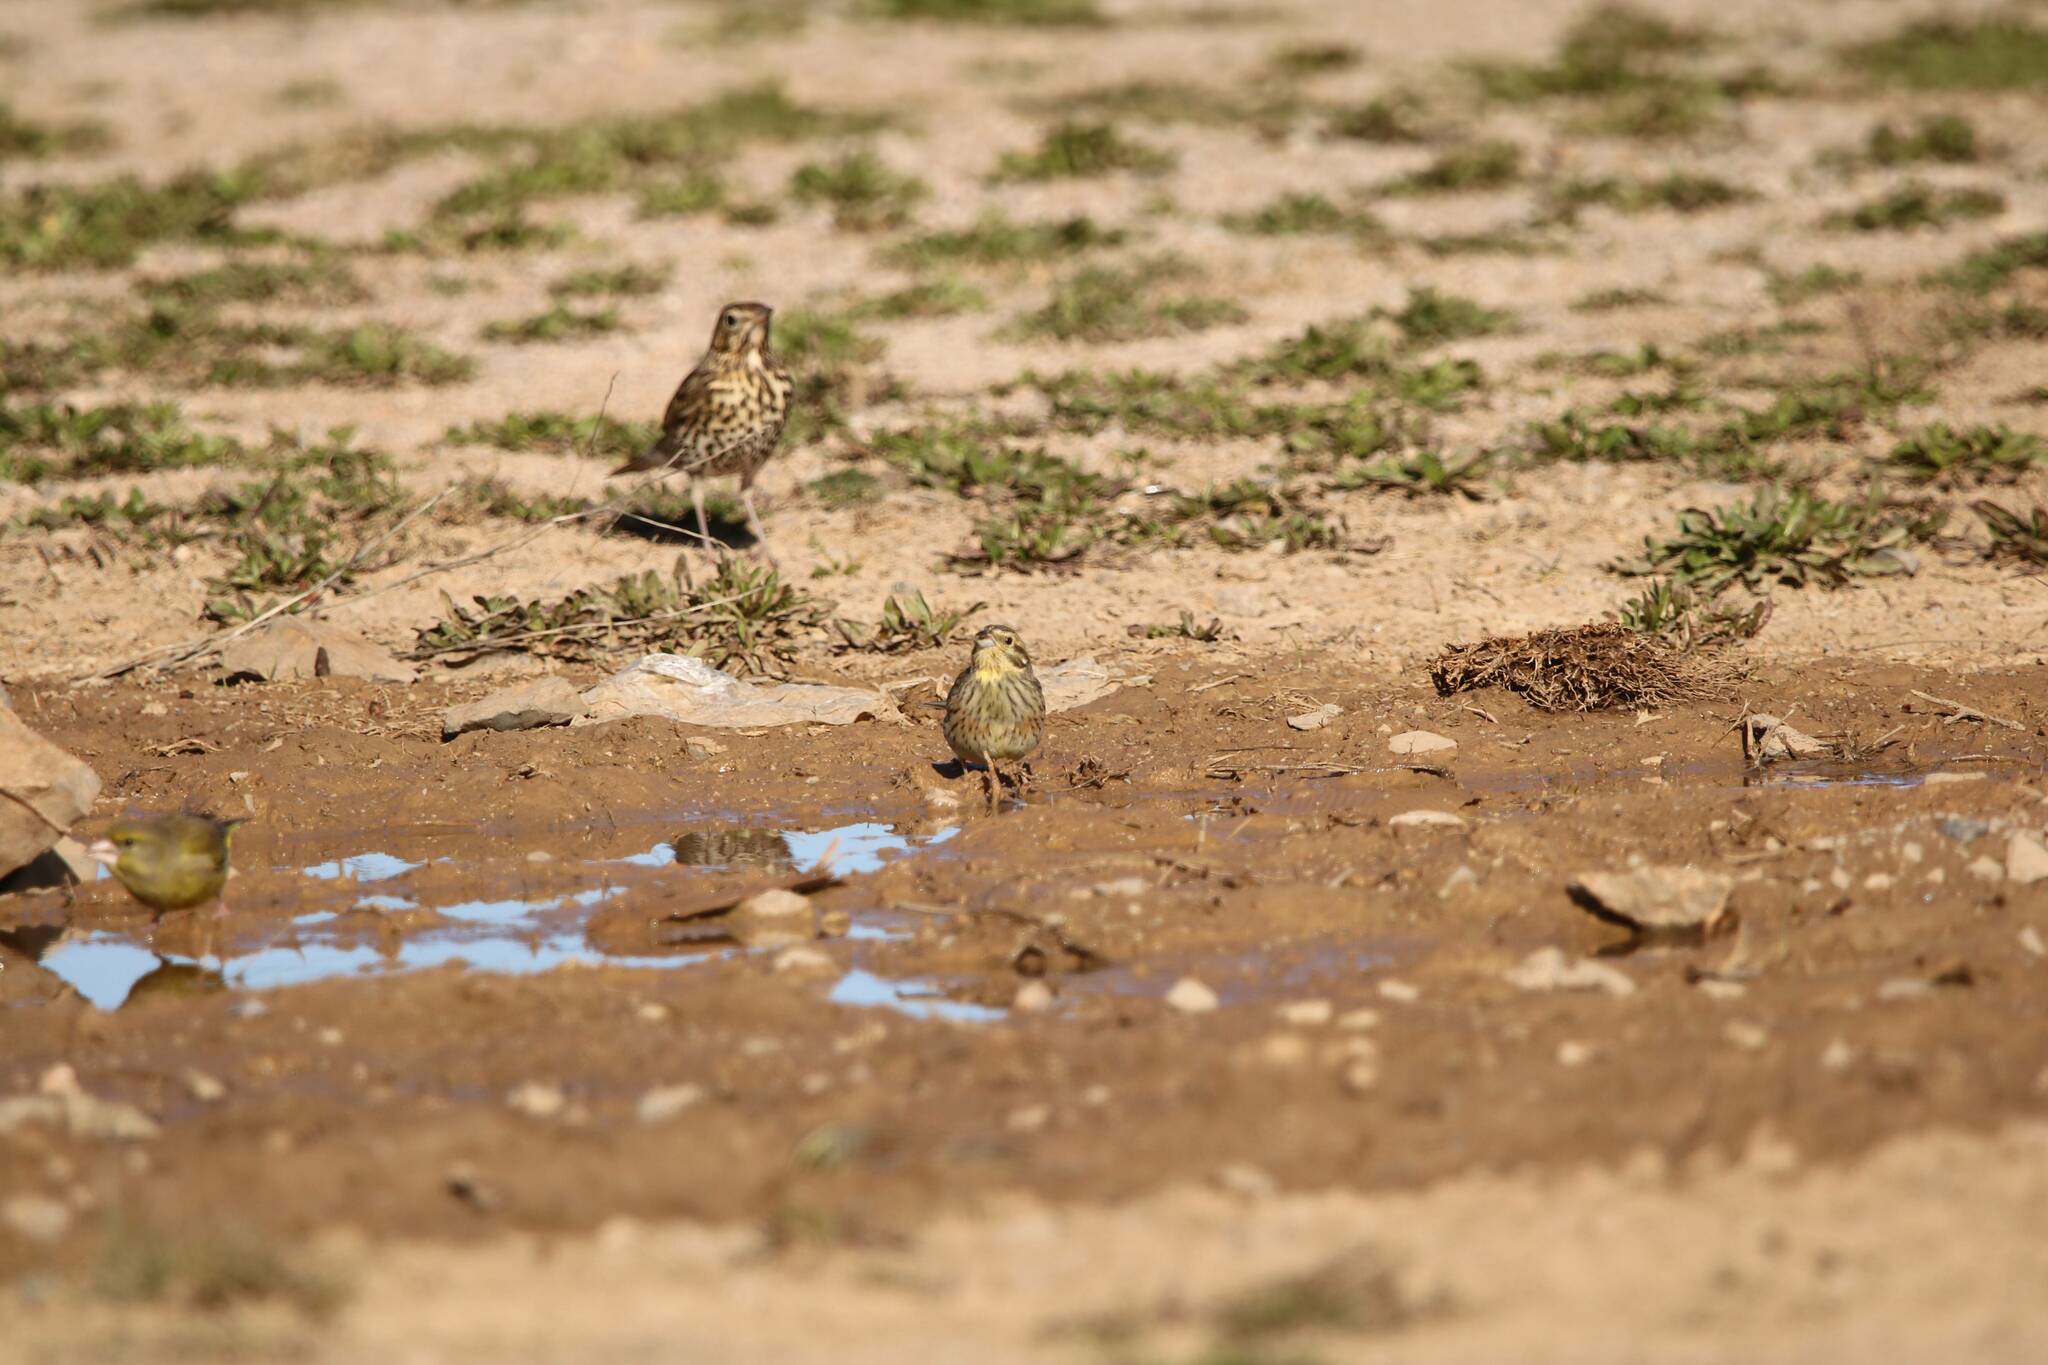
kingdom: Animalia
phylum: Chordata
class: Aves
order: Passeriformes
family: Emberizidae
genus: Emberiza
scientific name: Emberiza cirlus
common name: Cirl bunting
